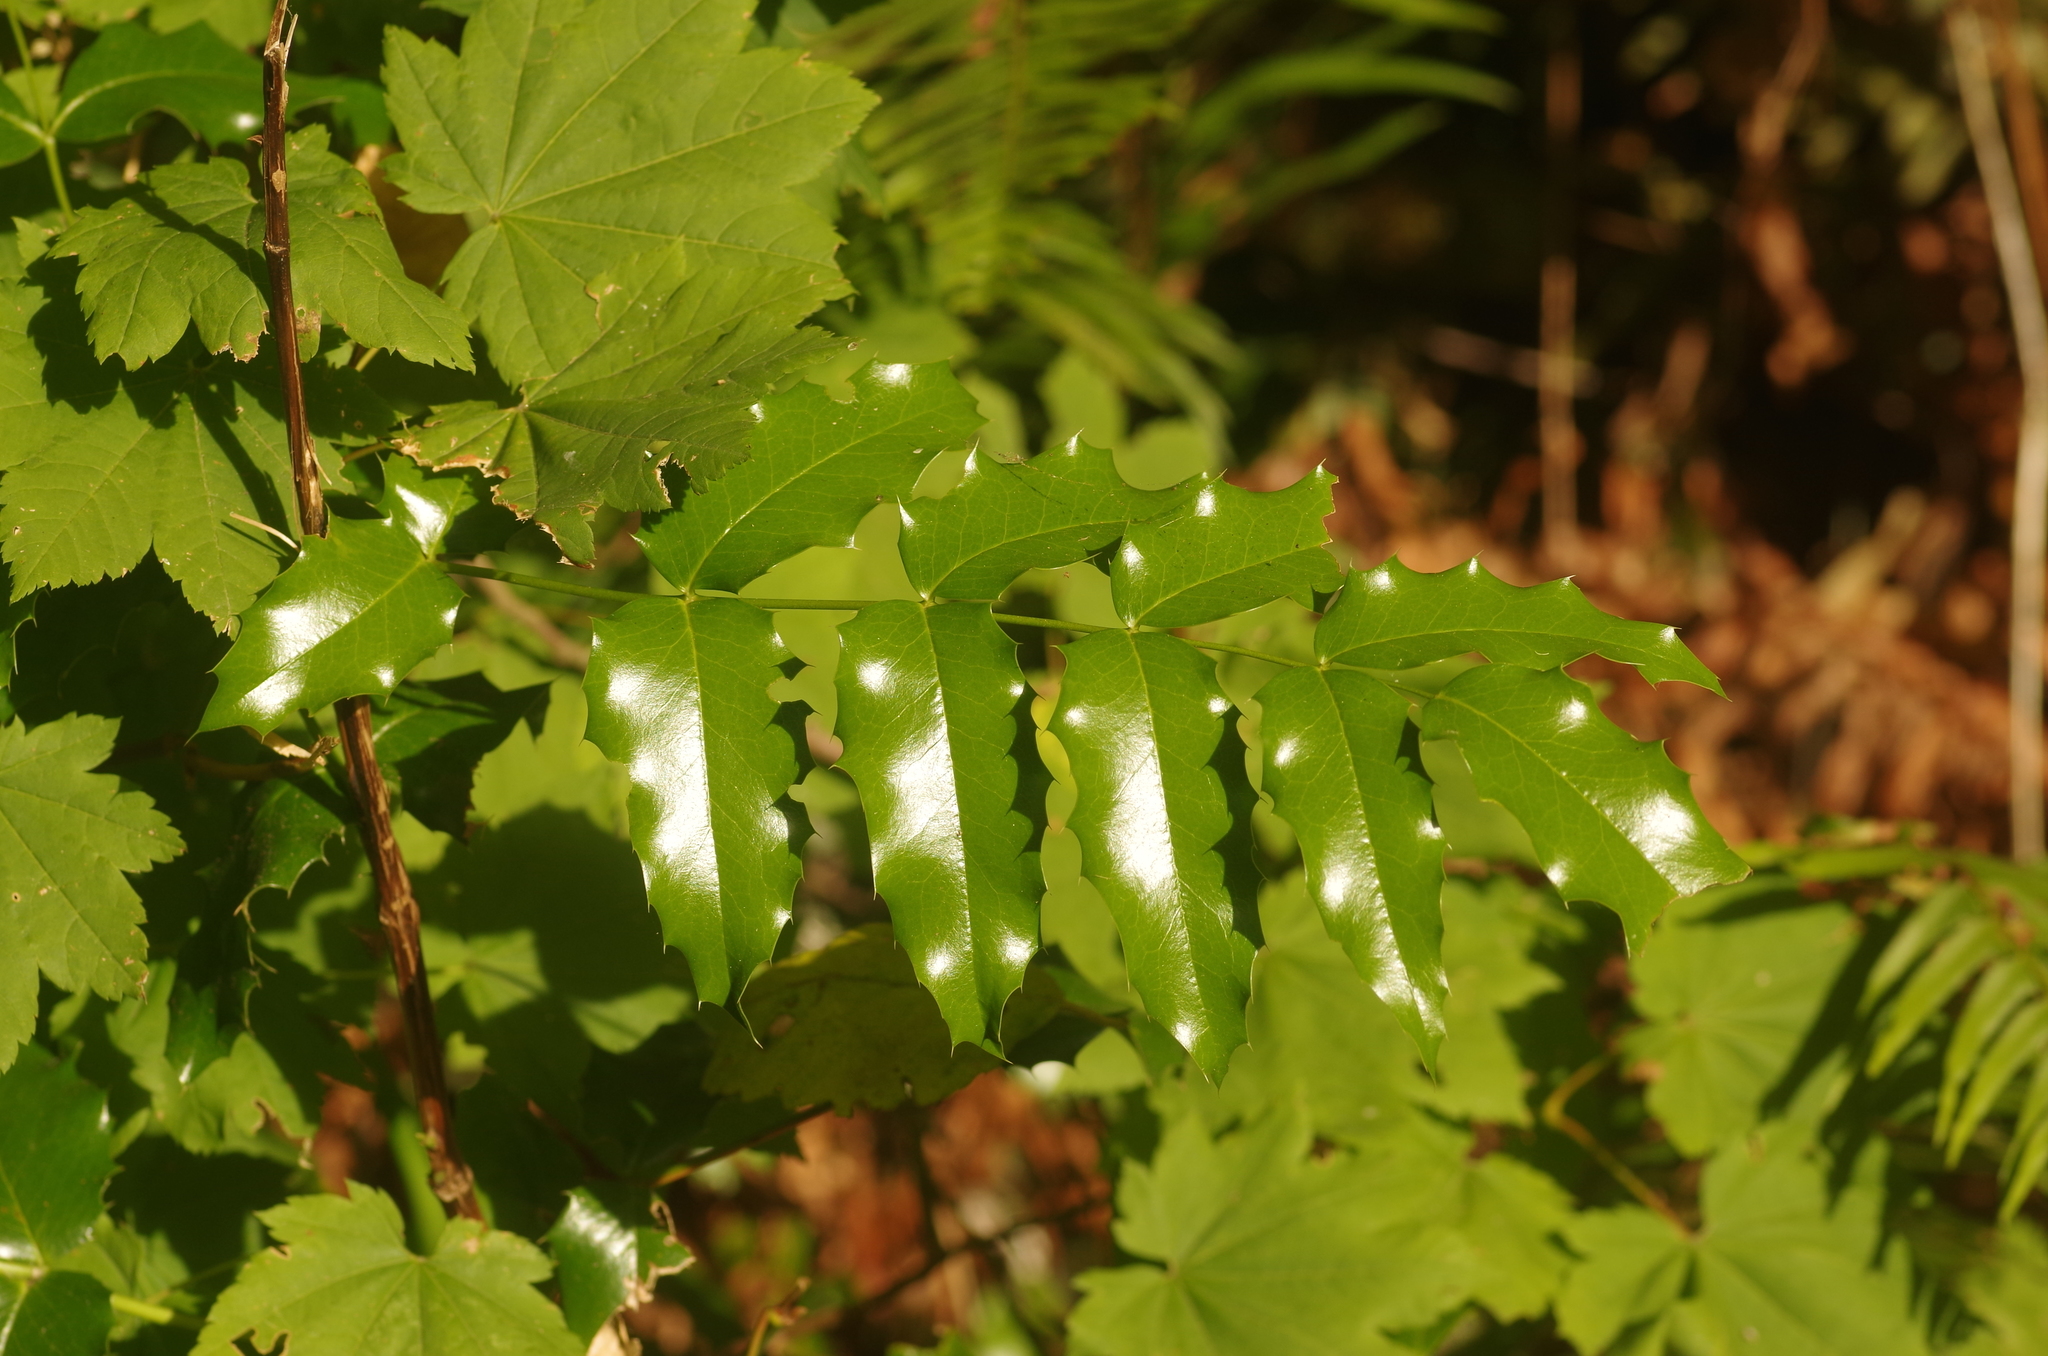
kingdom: Plantae
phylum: Tracheophyta
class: Magnoliopsida
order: Ranunculales
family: Berberidaceae
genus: Mahonia
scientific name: Mahonia aquifolium
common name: Oregon-grape
